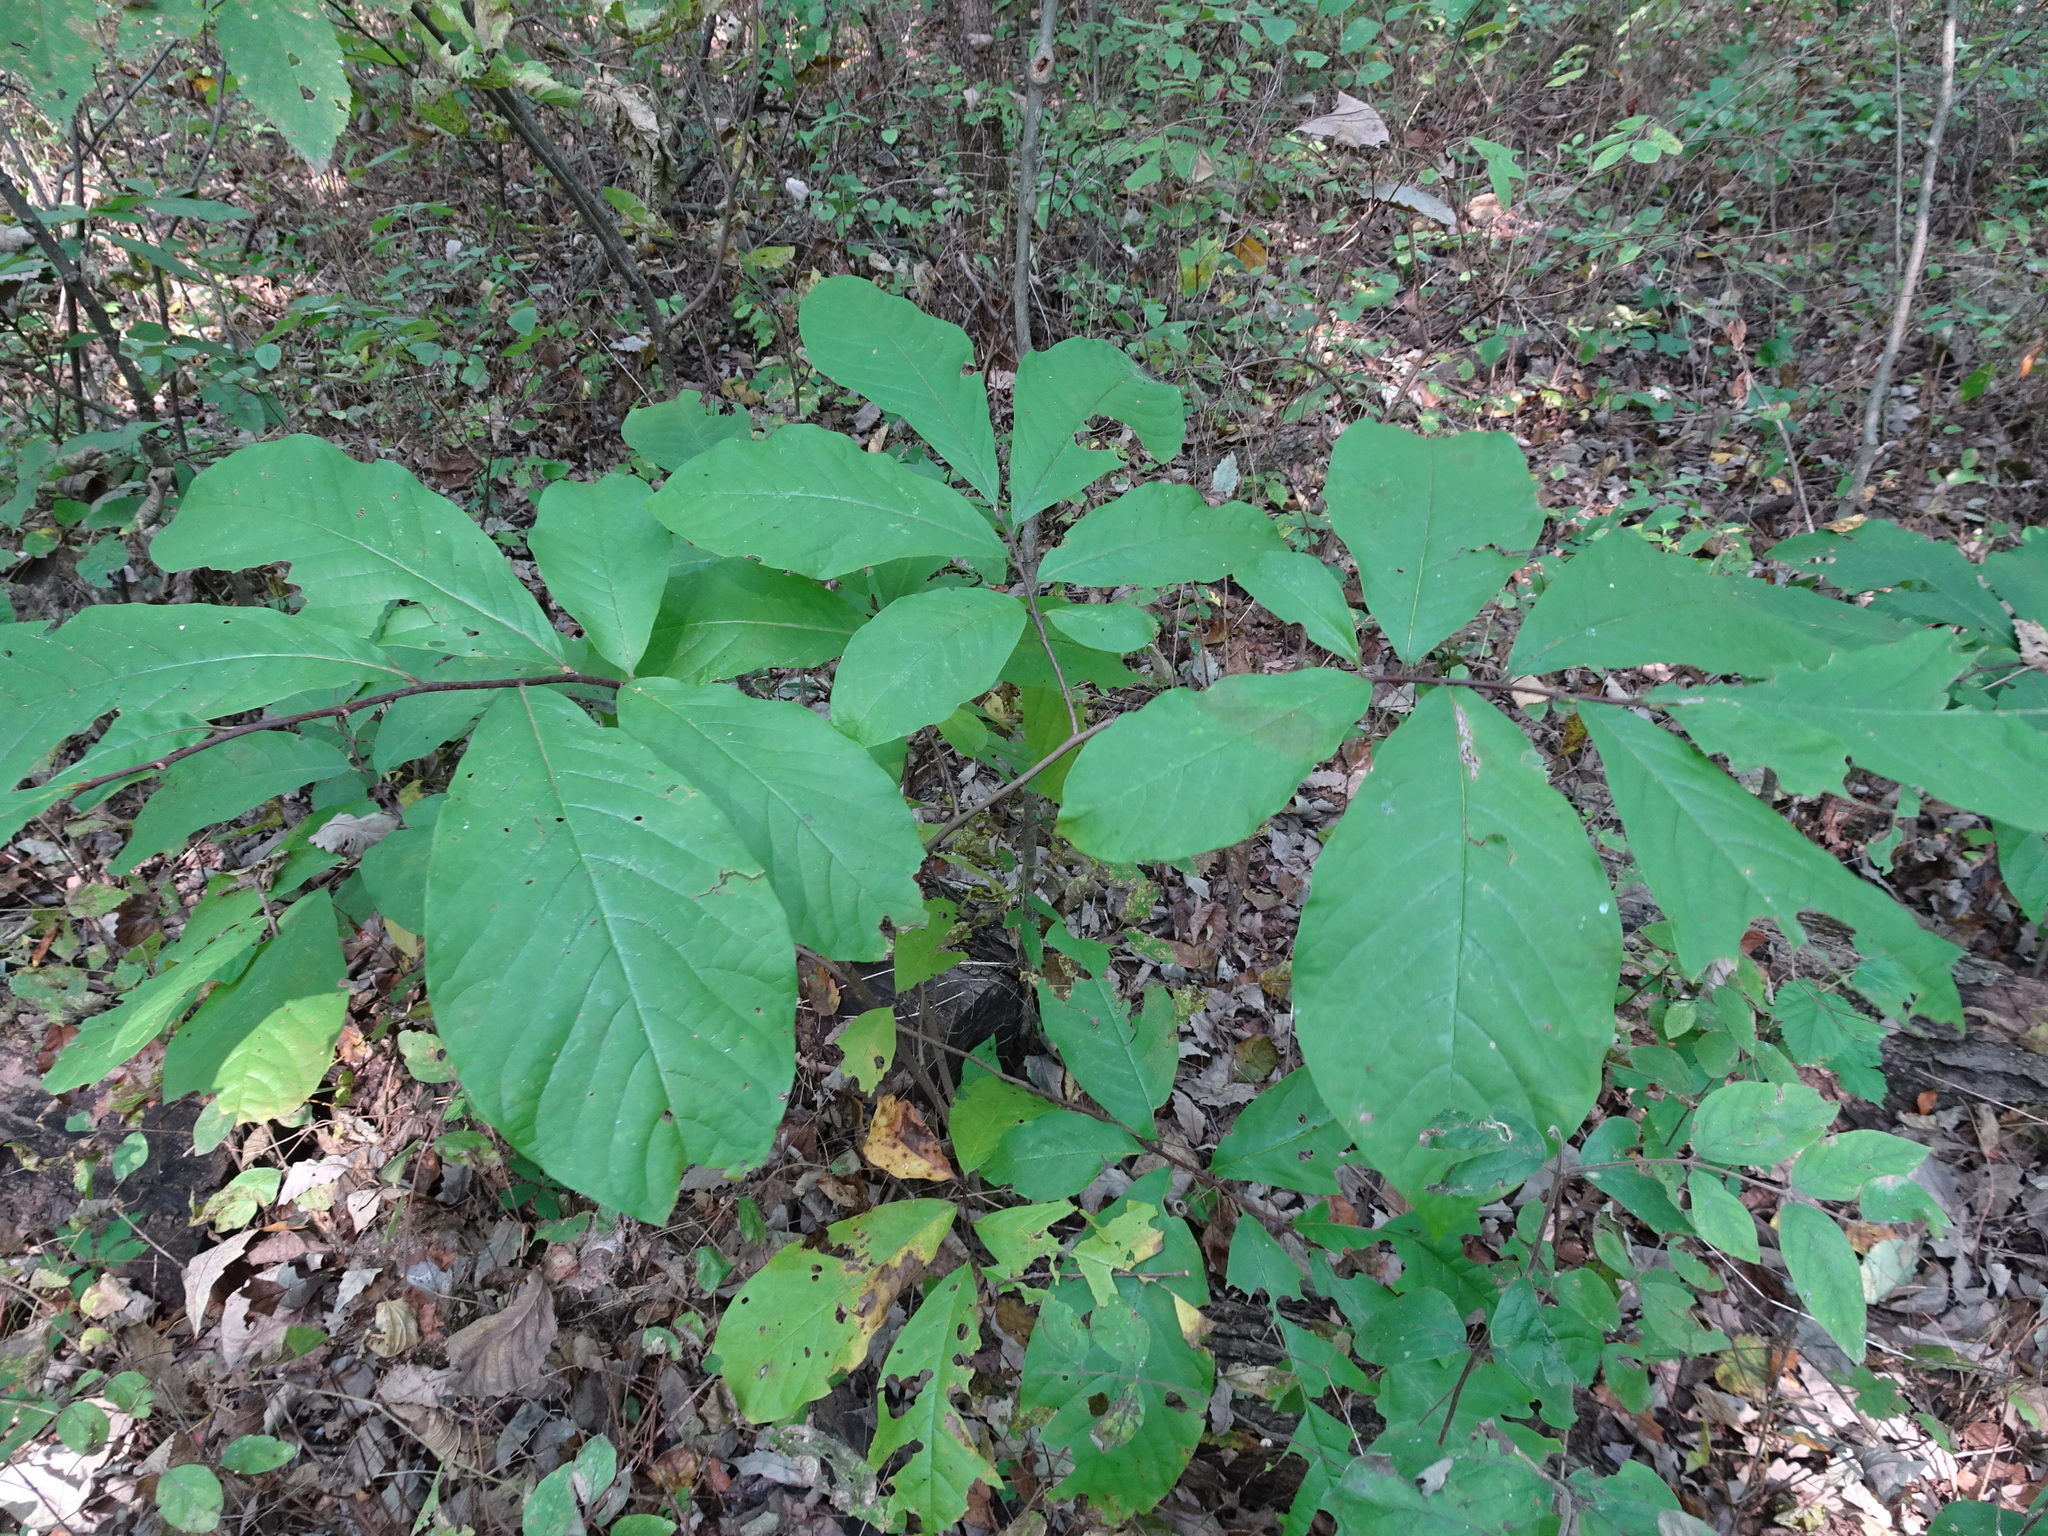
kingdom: Plantae
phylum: Tracheophyta
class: Magnoliopsida
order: Magnoliales
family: Annonaceae
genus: Asimina
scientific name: Asimina triloba
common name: Dog-banana
